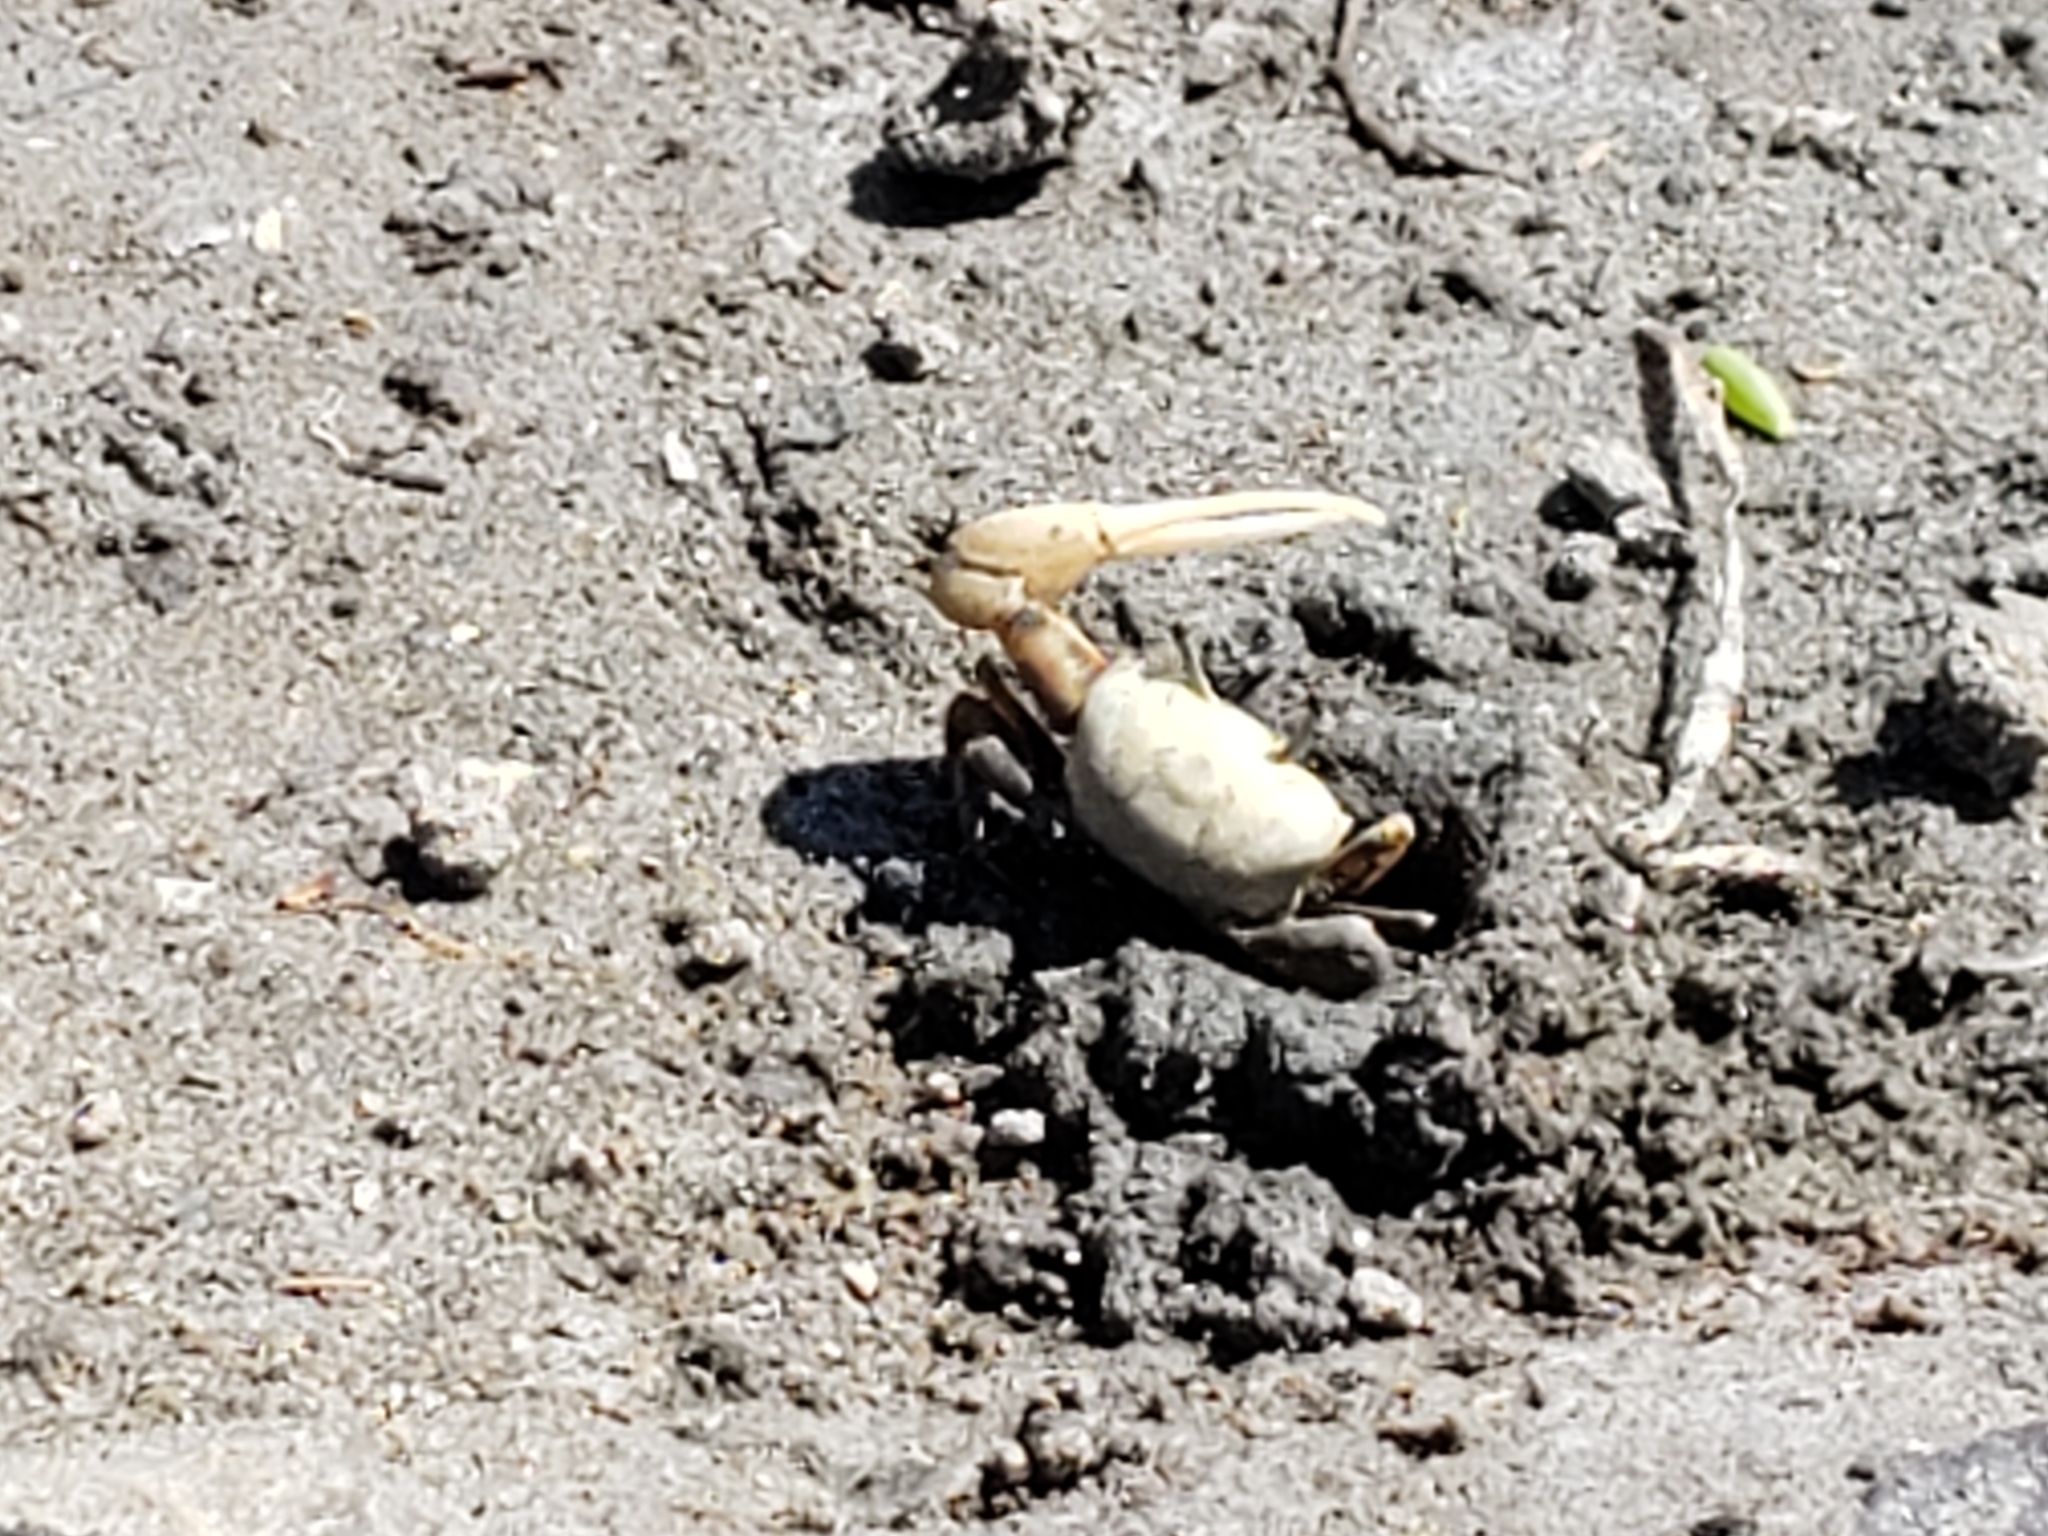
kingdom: Animalia
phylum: Arthropoda
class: Malacostraca
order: Decapoda
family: Ocypodidae
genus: Leptuca
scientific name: Leptuca crenulata
